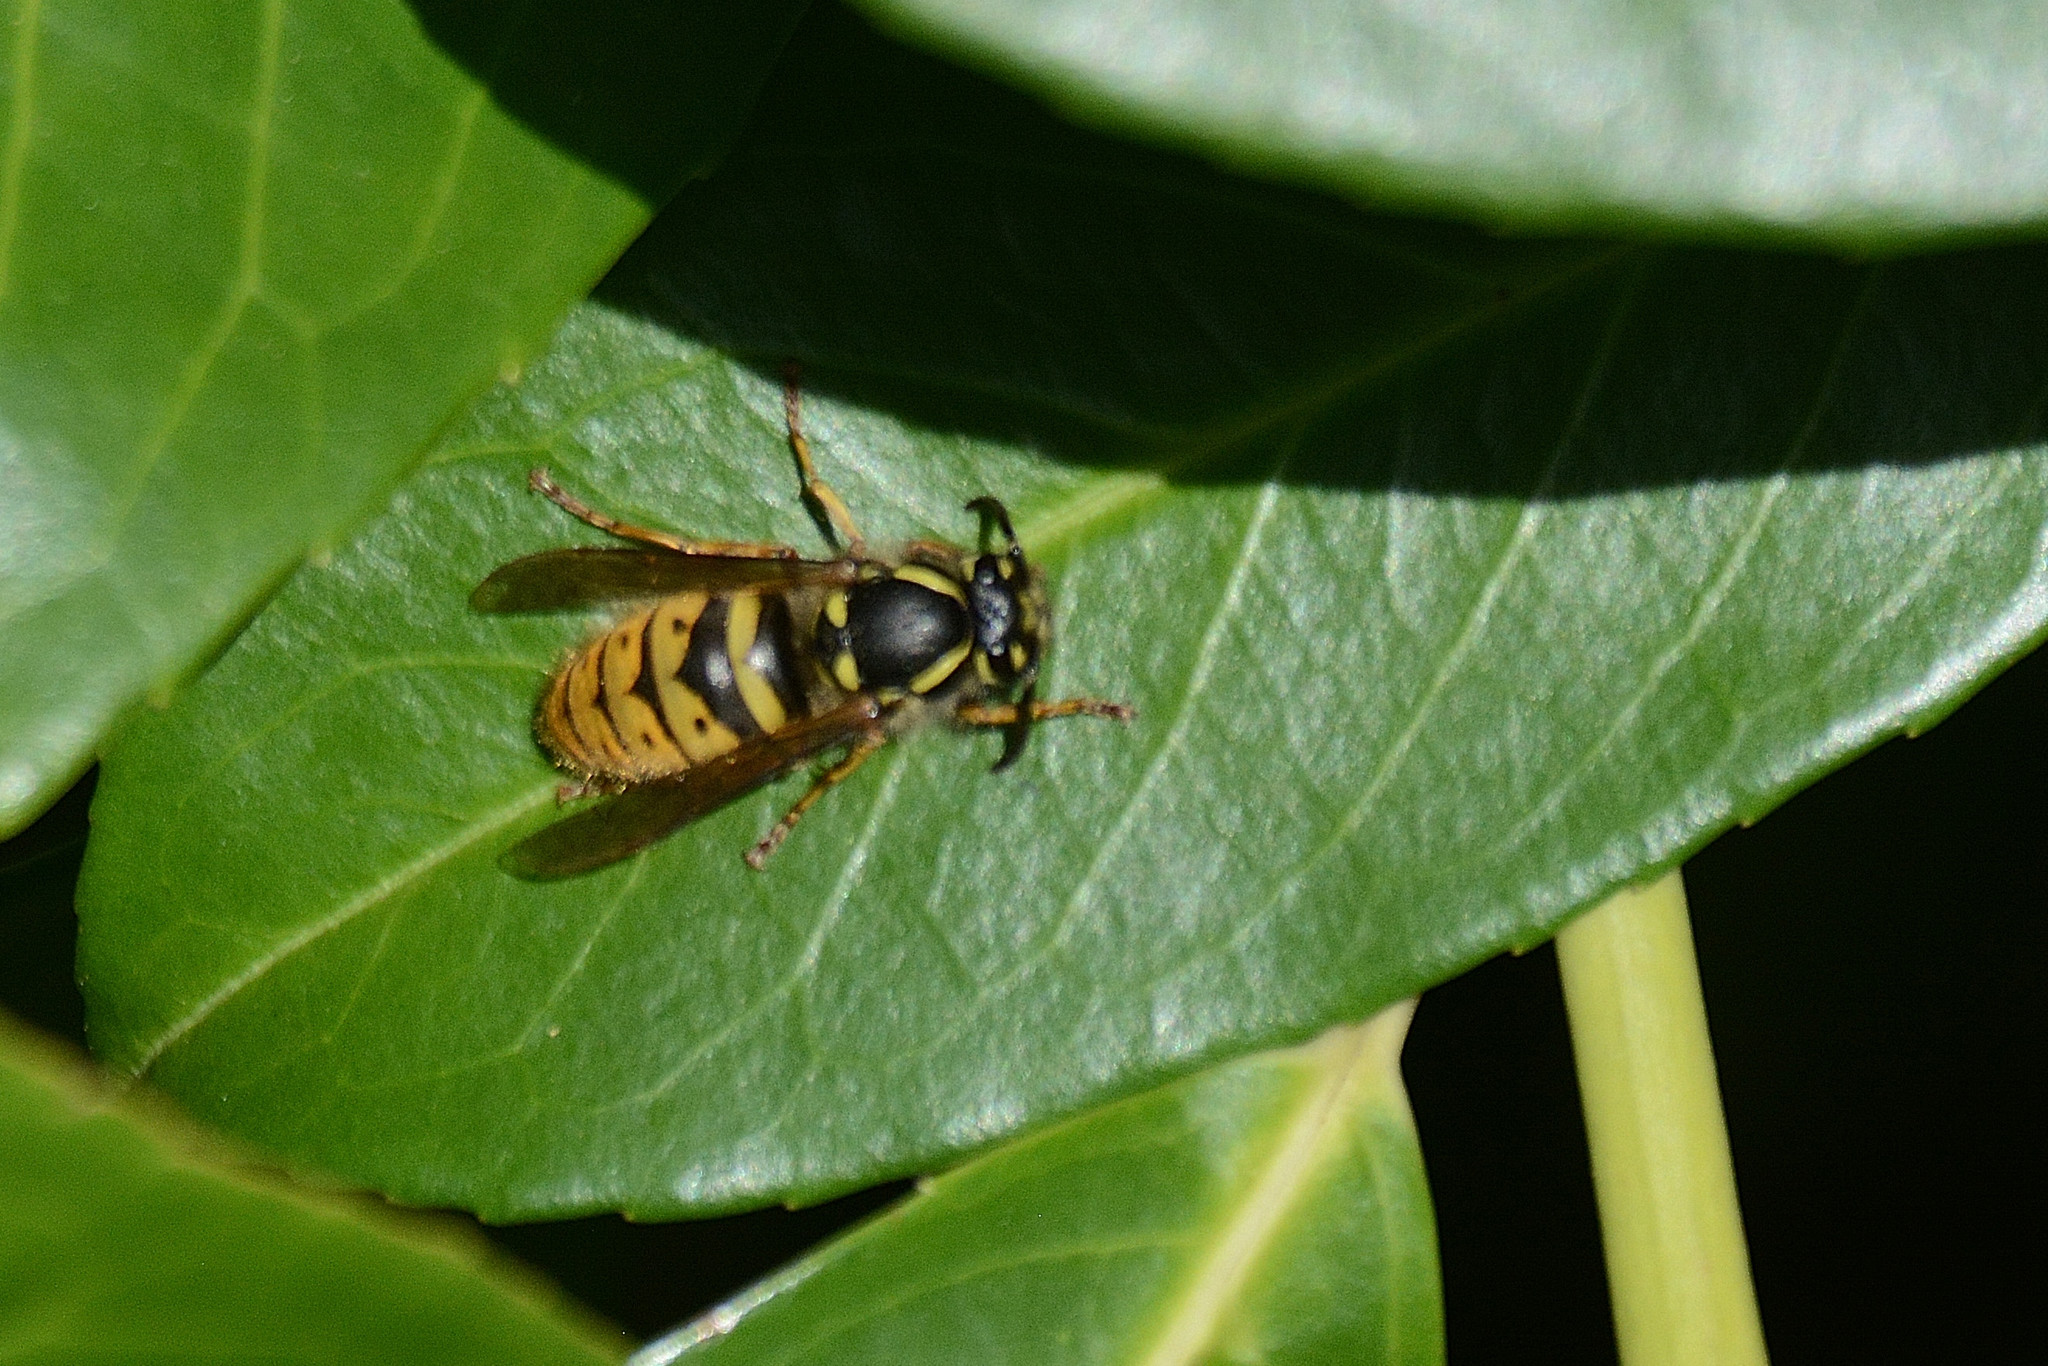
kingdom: Animalia
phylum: Arthropoda
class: Insecta
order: Hymenoptera
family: Vespidae
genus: Vespula
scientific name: Vespula vulgaris
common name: Common wasp
